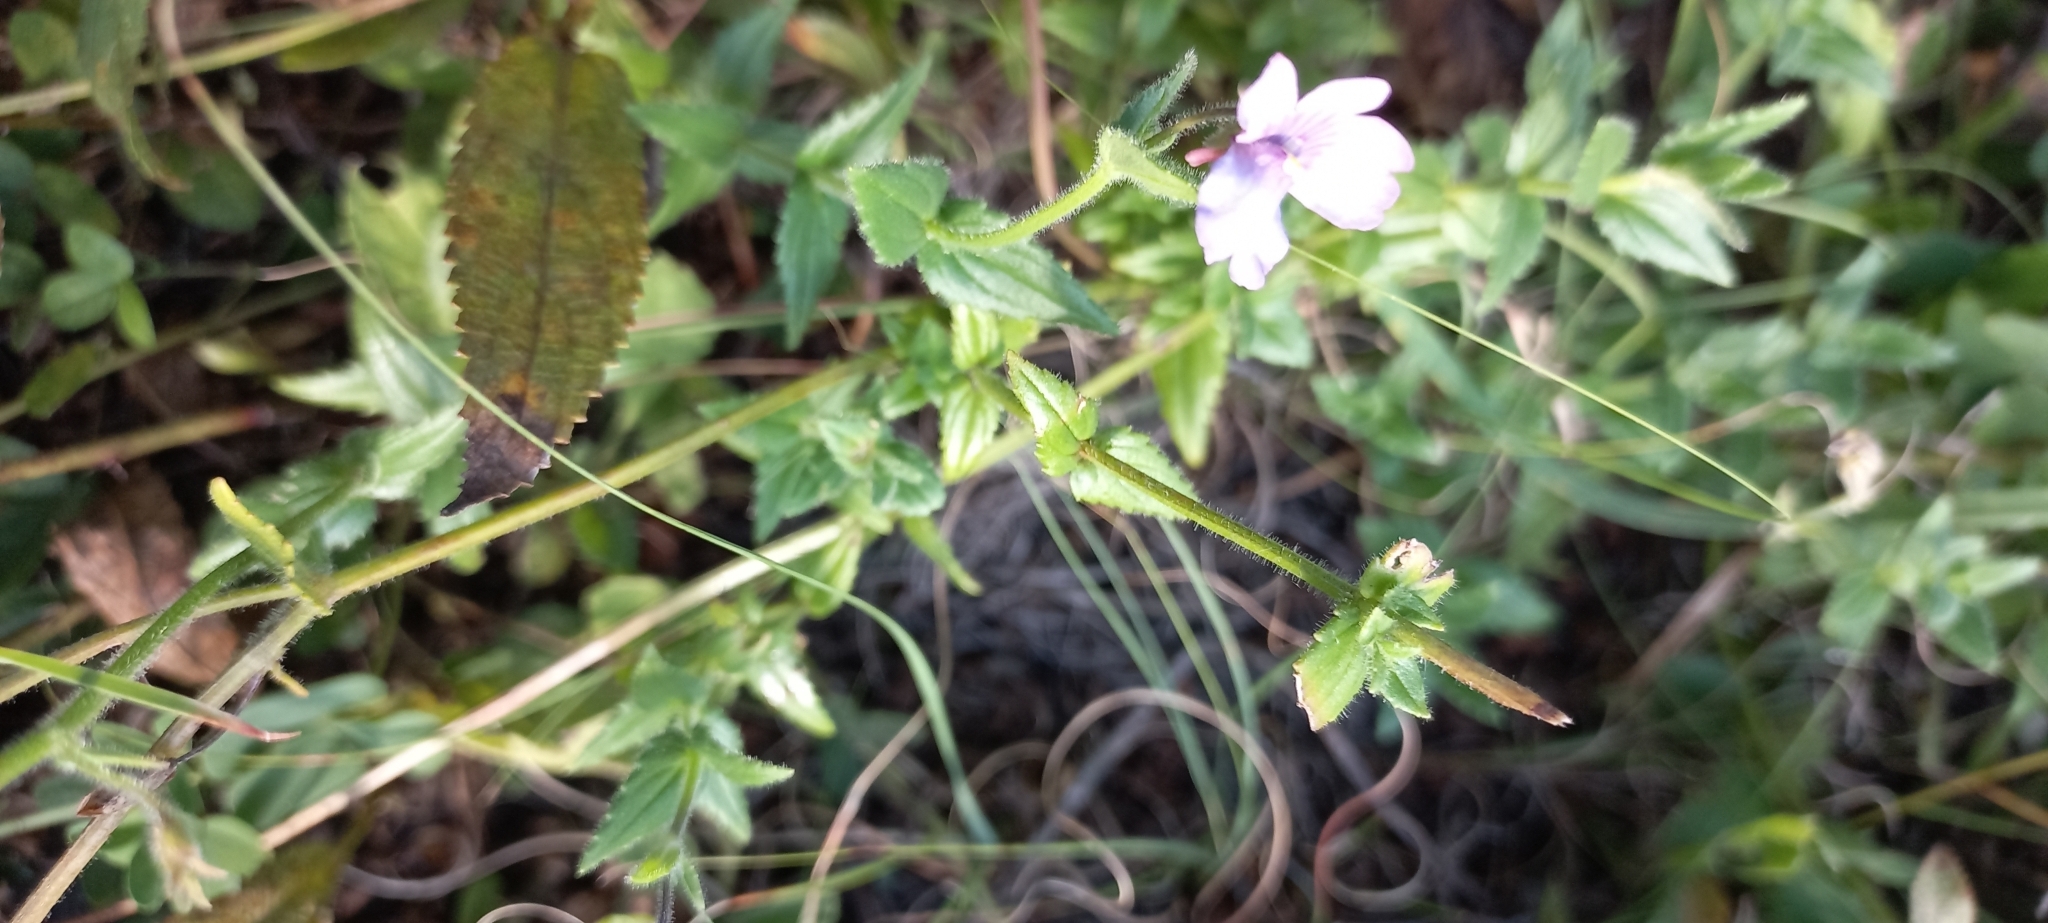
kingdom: Plantae
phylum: Tracheophyta
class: Magnoliopsida
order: Lamiales
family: Scrophulariaceae
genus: Nemesia
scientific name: Nemesia fruticans
